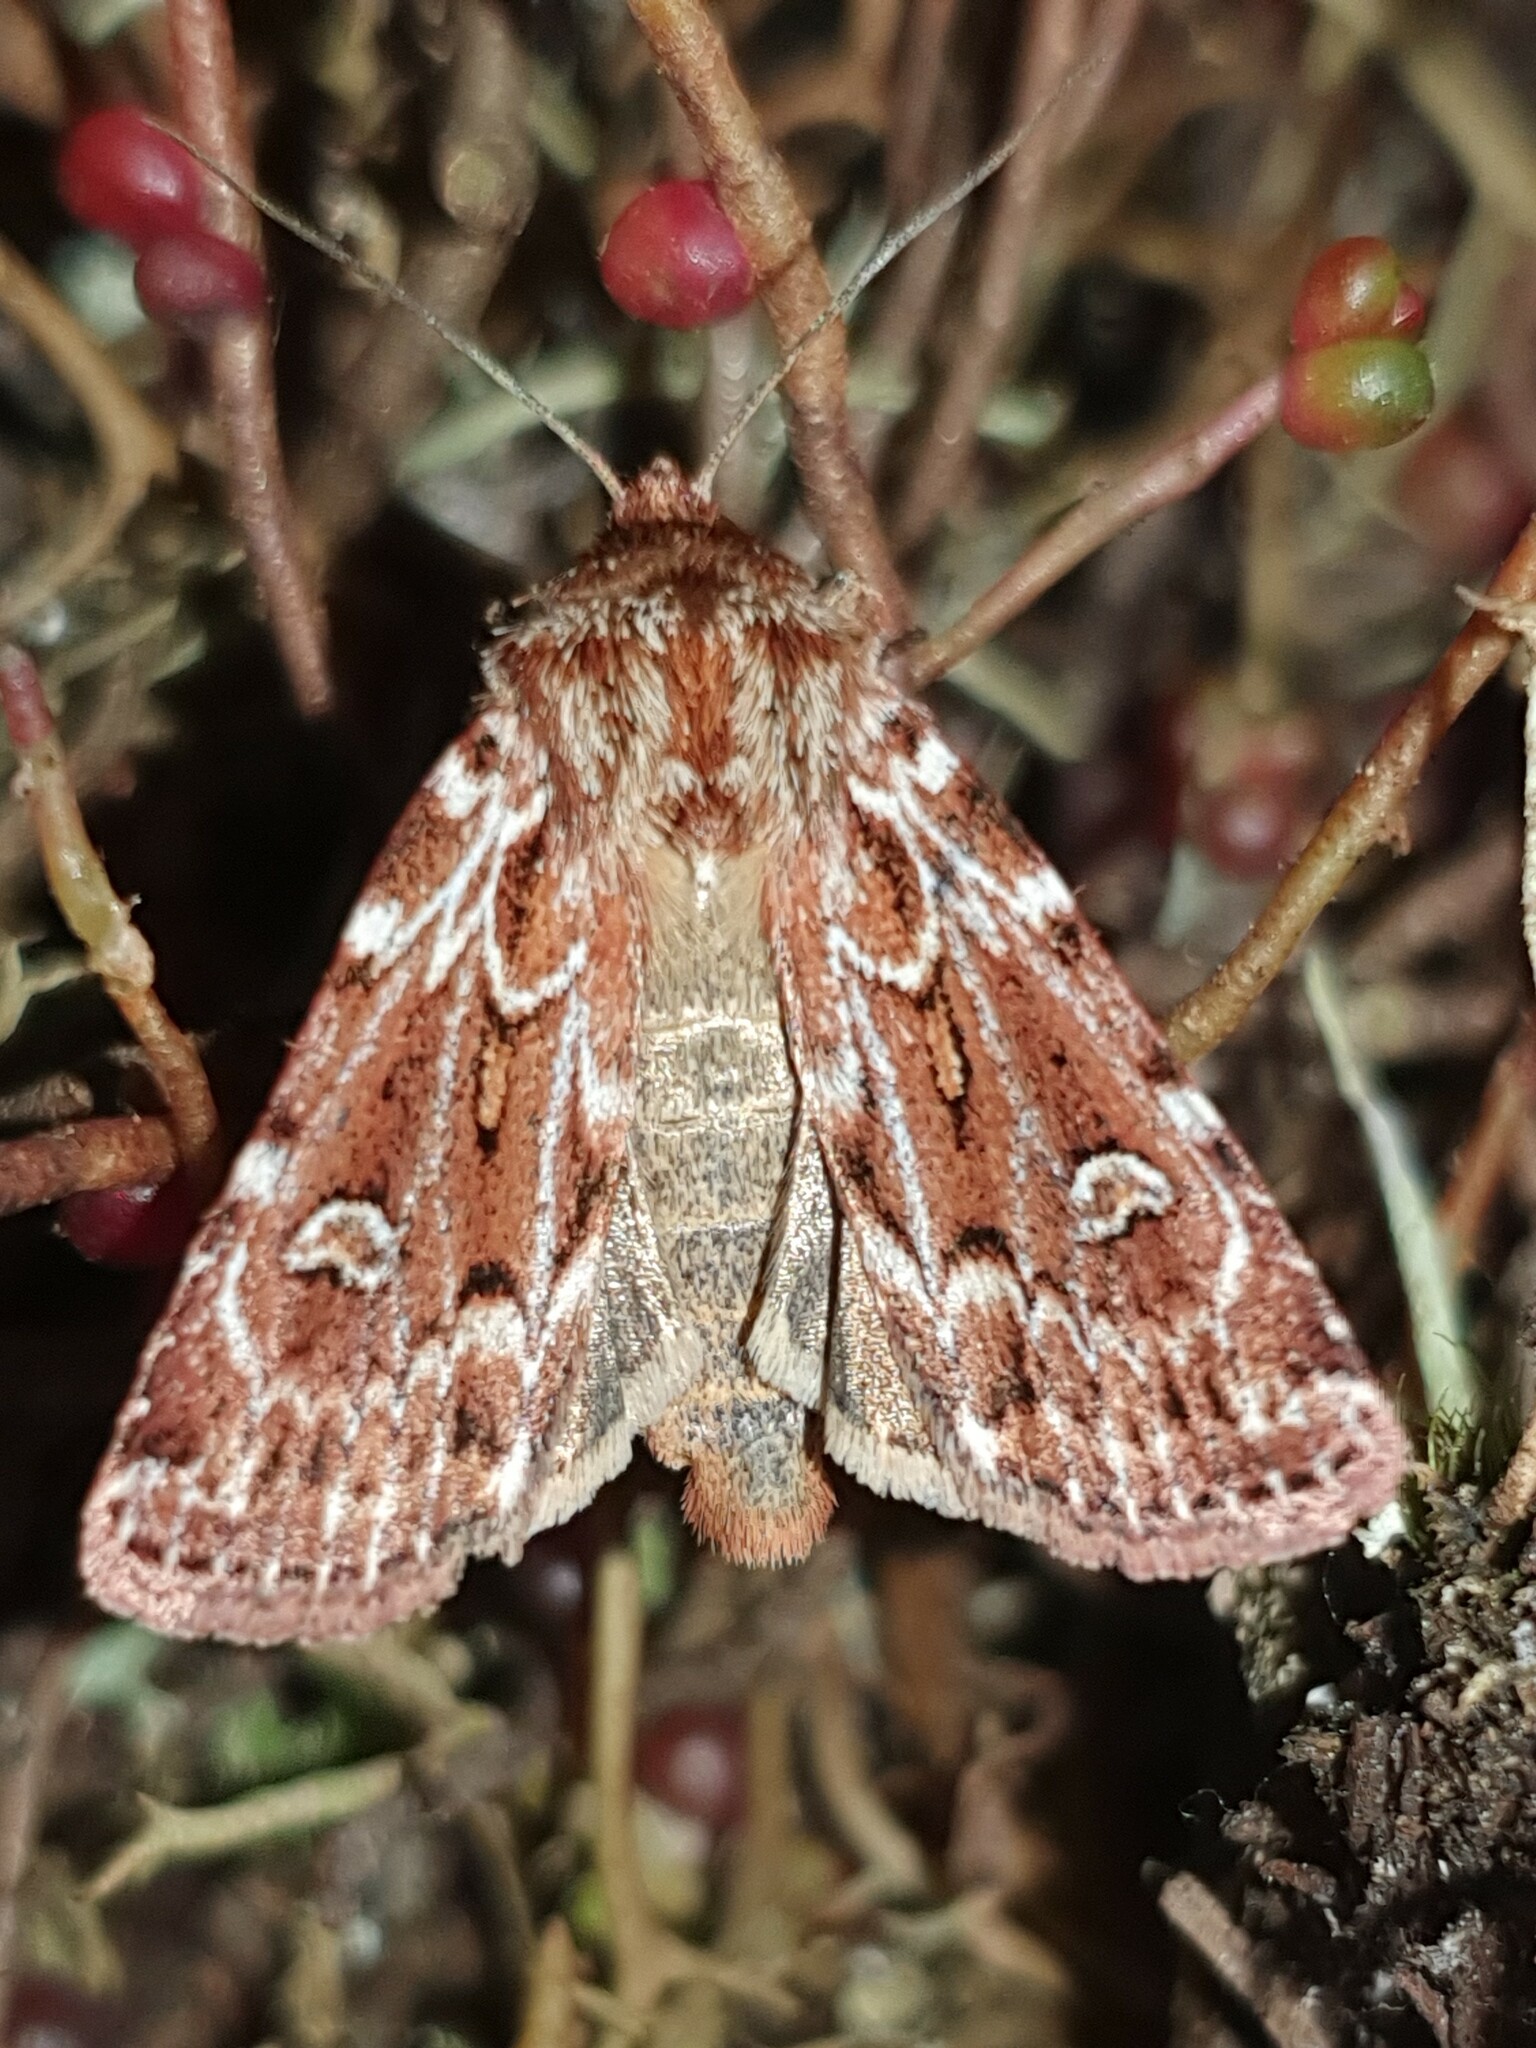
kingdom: Animalia
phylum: Arthropoda
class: Insecta
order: Lepidoptera
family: Noctuidae
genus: Lycophotia
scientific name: Lycophotia porphyrea
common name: True lover's knot
